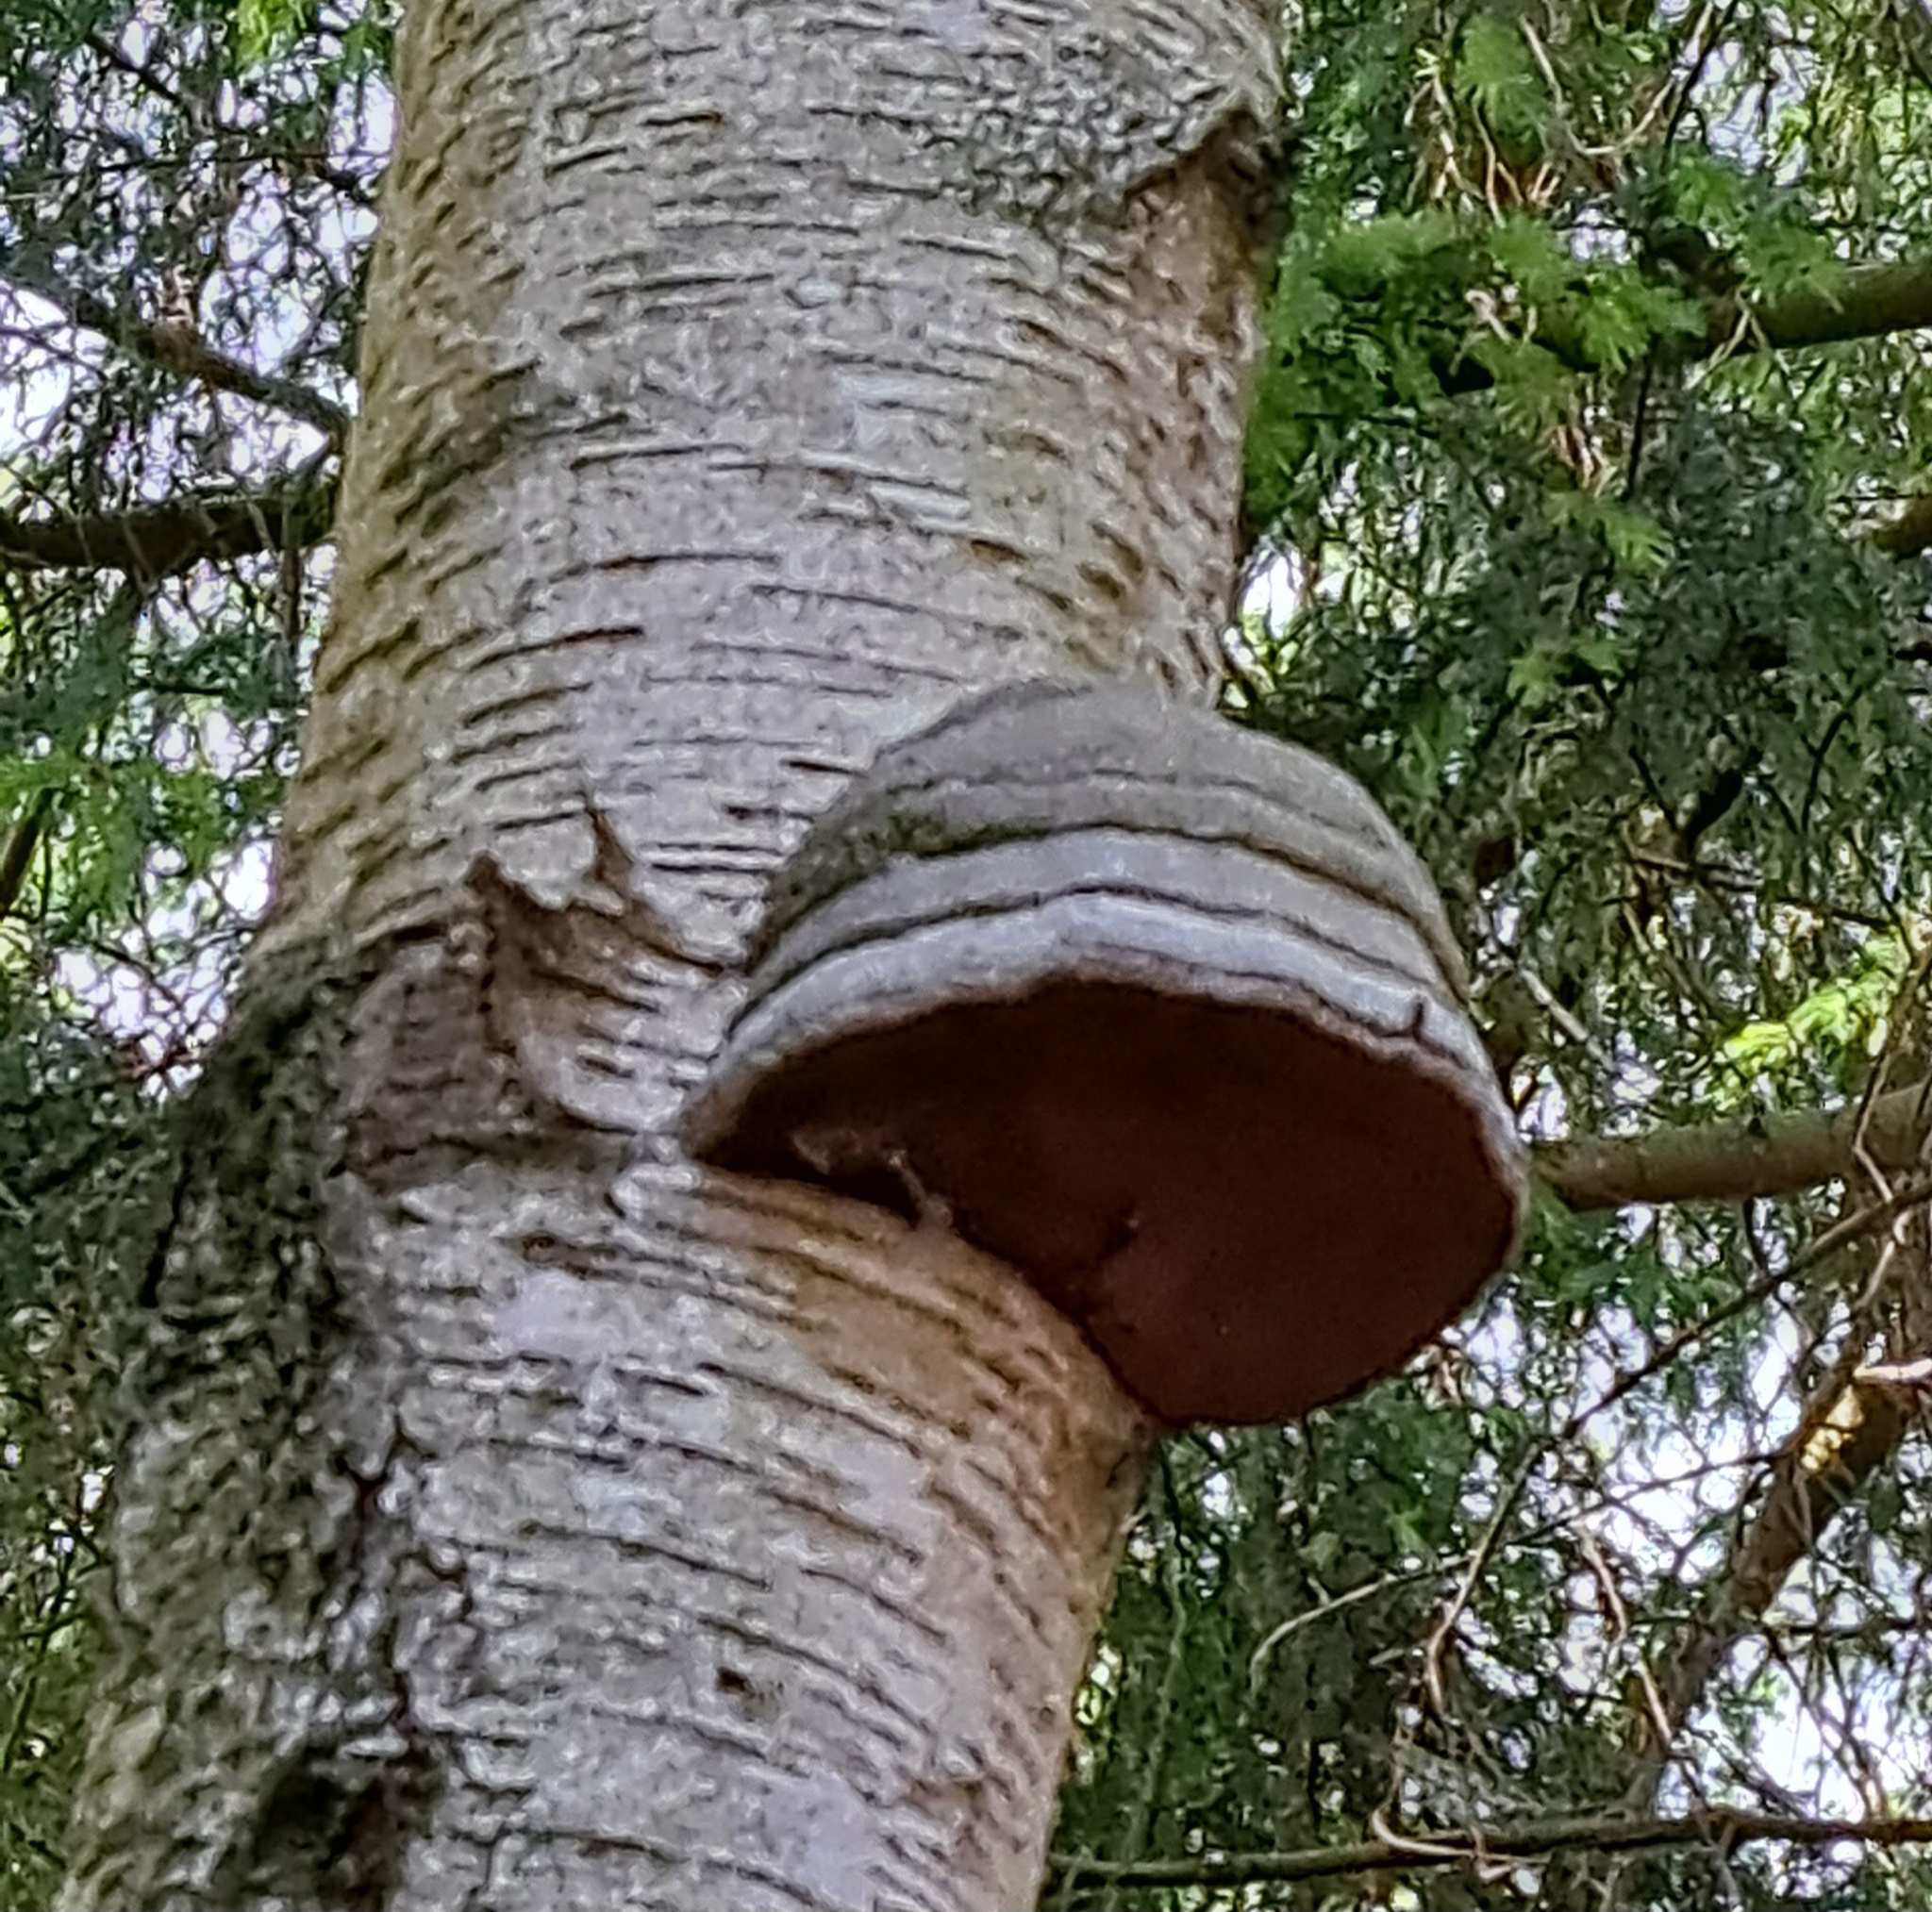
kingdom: Fungi
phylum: Basidiomycota
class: Agaricomycetes
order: Polyporales
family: Polyporaceae
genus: Fomes
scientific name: Fomes fomentarius
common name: Hoof fungus
